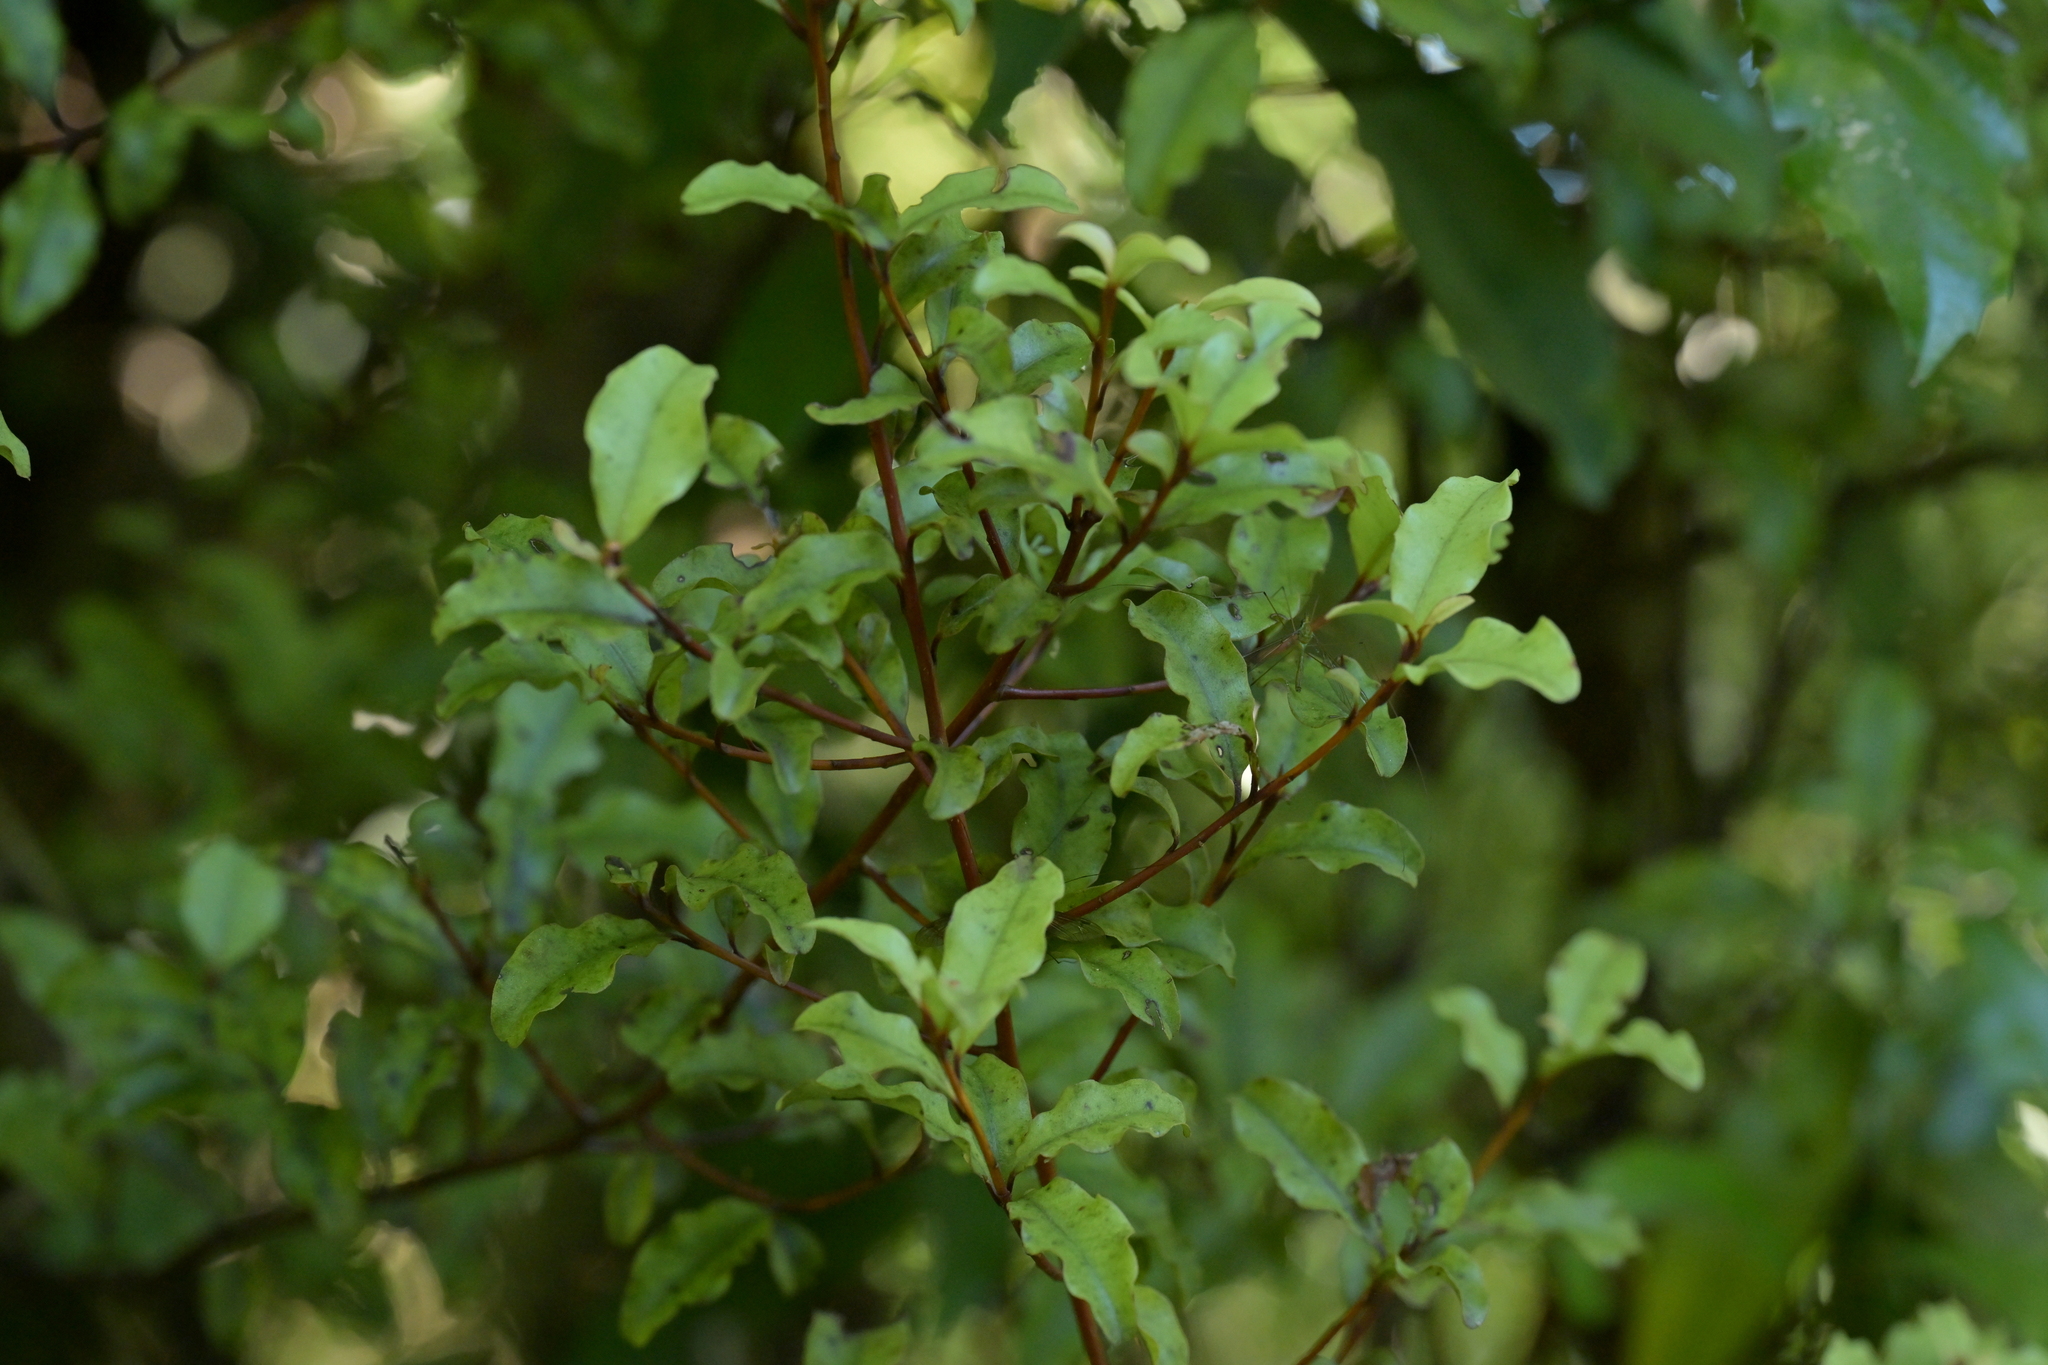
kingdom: Plantae
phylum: Tracheophyta
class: Magnoliopsida
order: Ericales
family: Primulaceae
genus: Myrsine
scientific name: Myrsine australis
